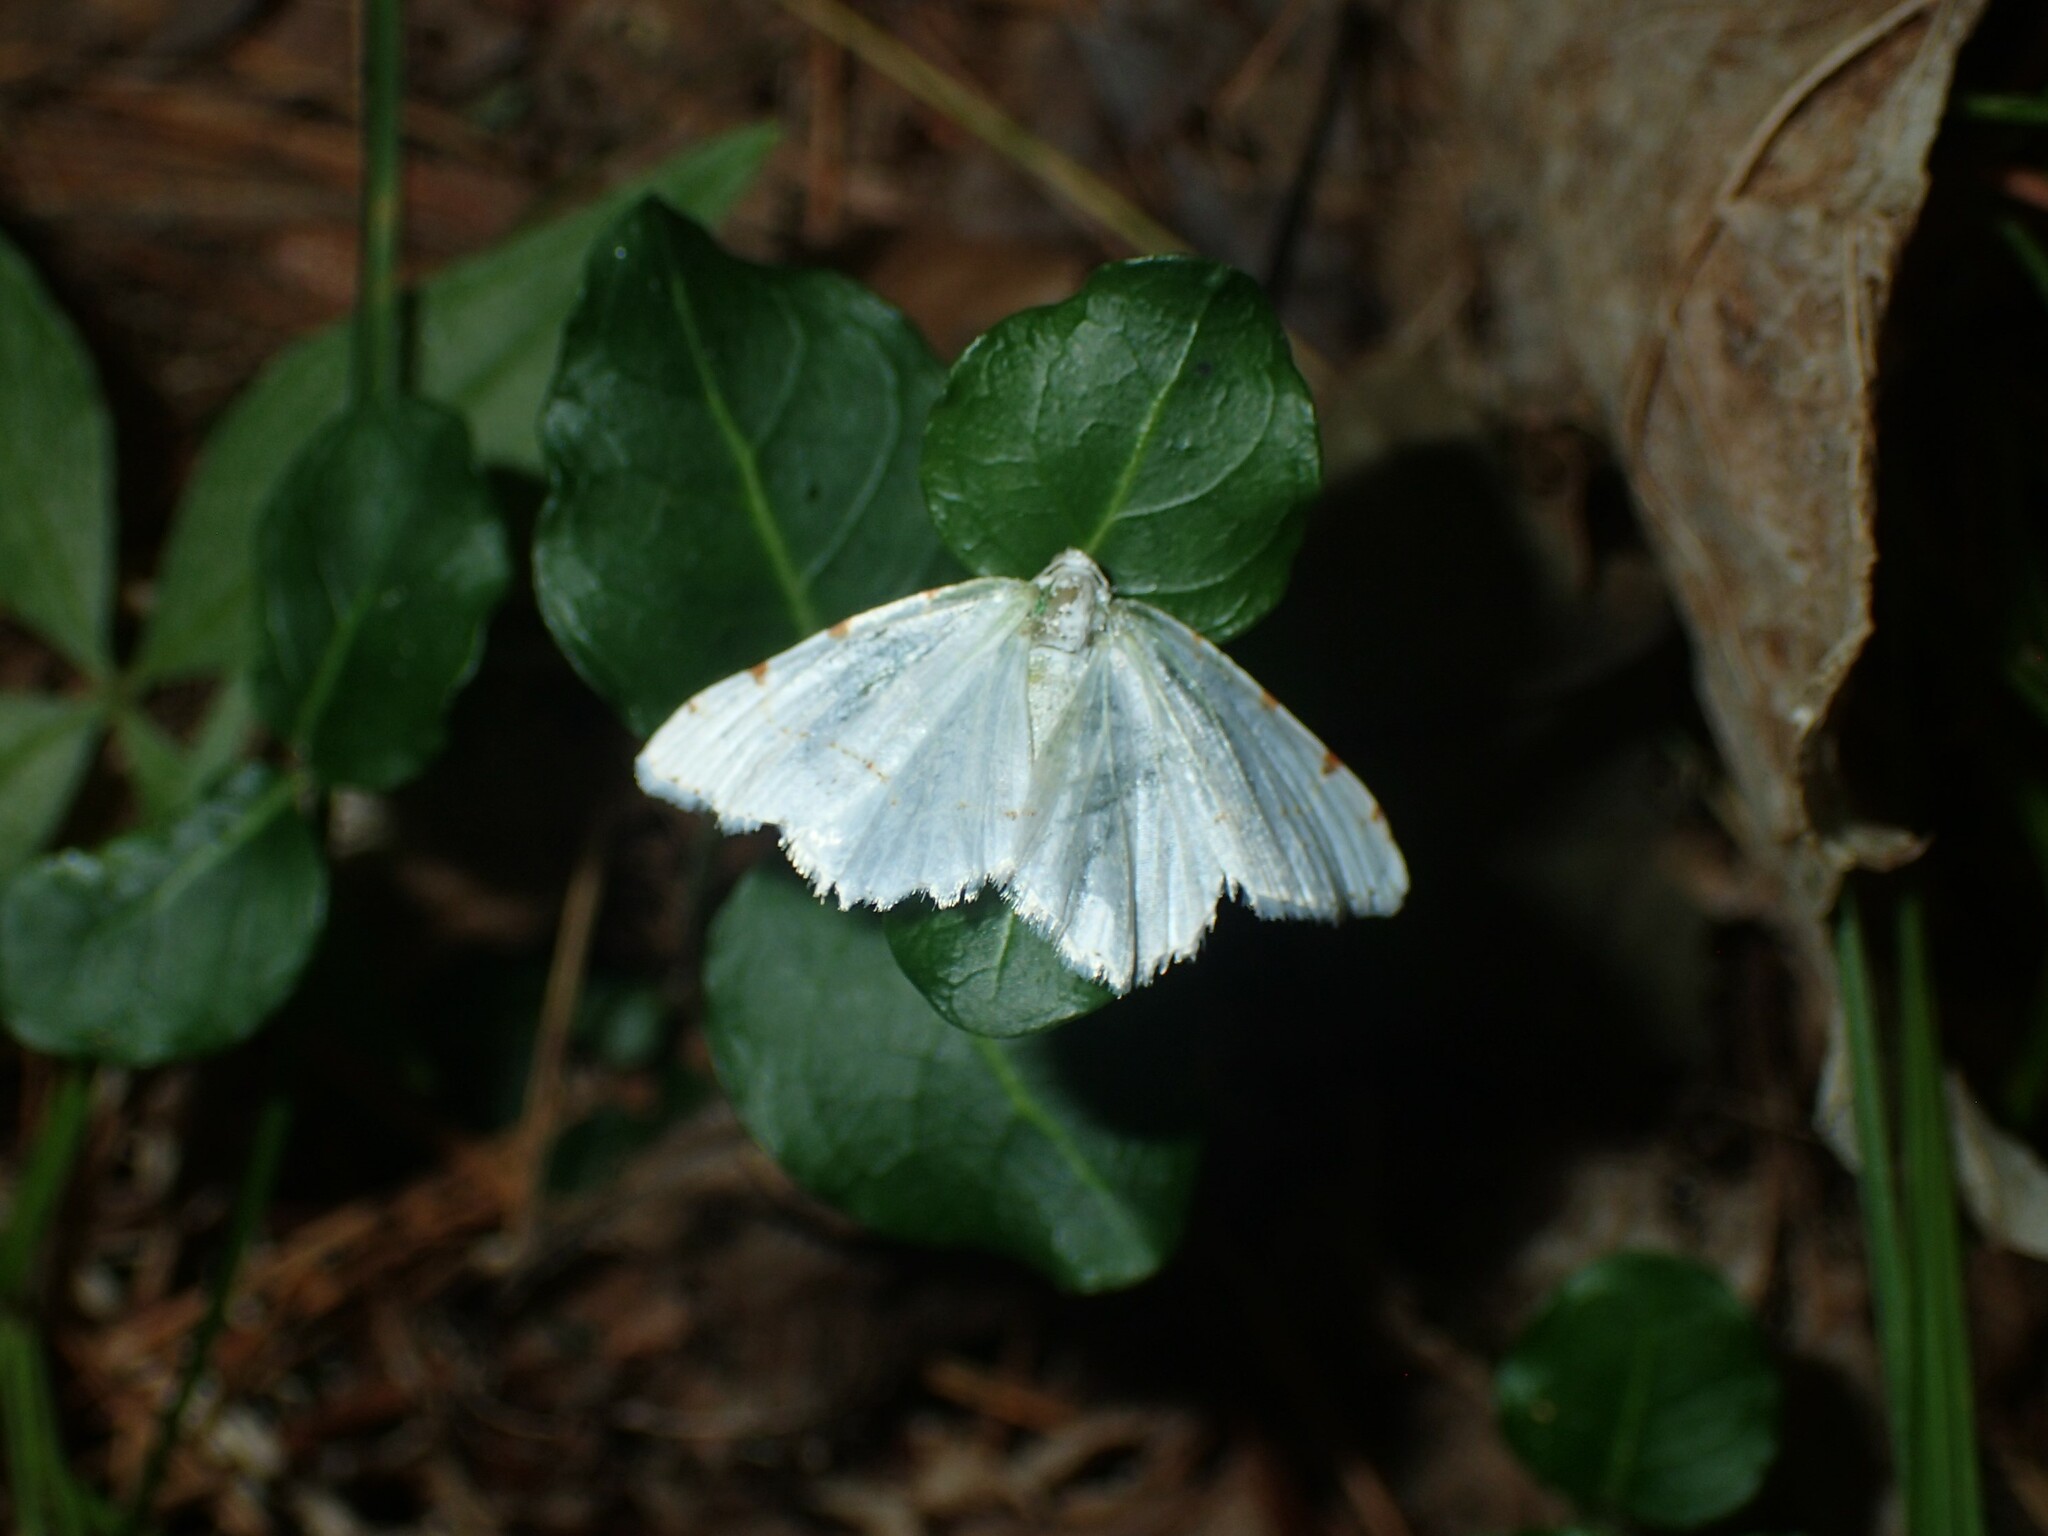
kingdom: Animalia
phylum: Arthropoda
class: Insecta
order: Lepidoptera
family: Geometridae
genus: Macaria
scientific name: Macaria pustularia
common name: Lesser maple spanworm moth
